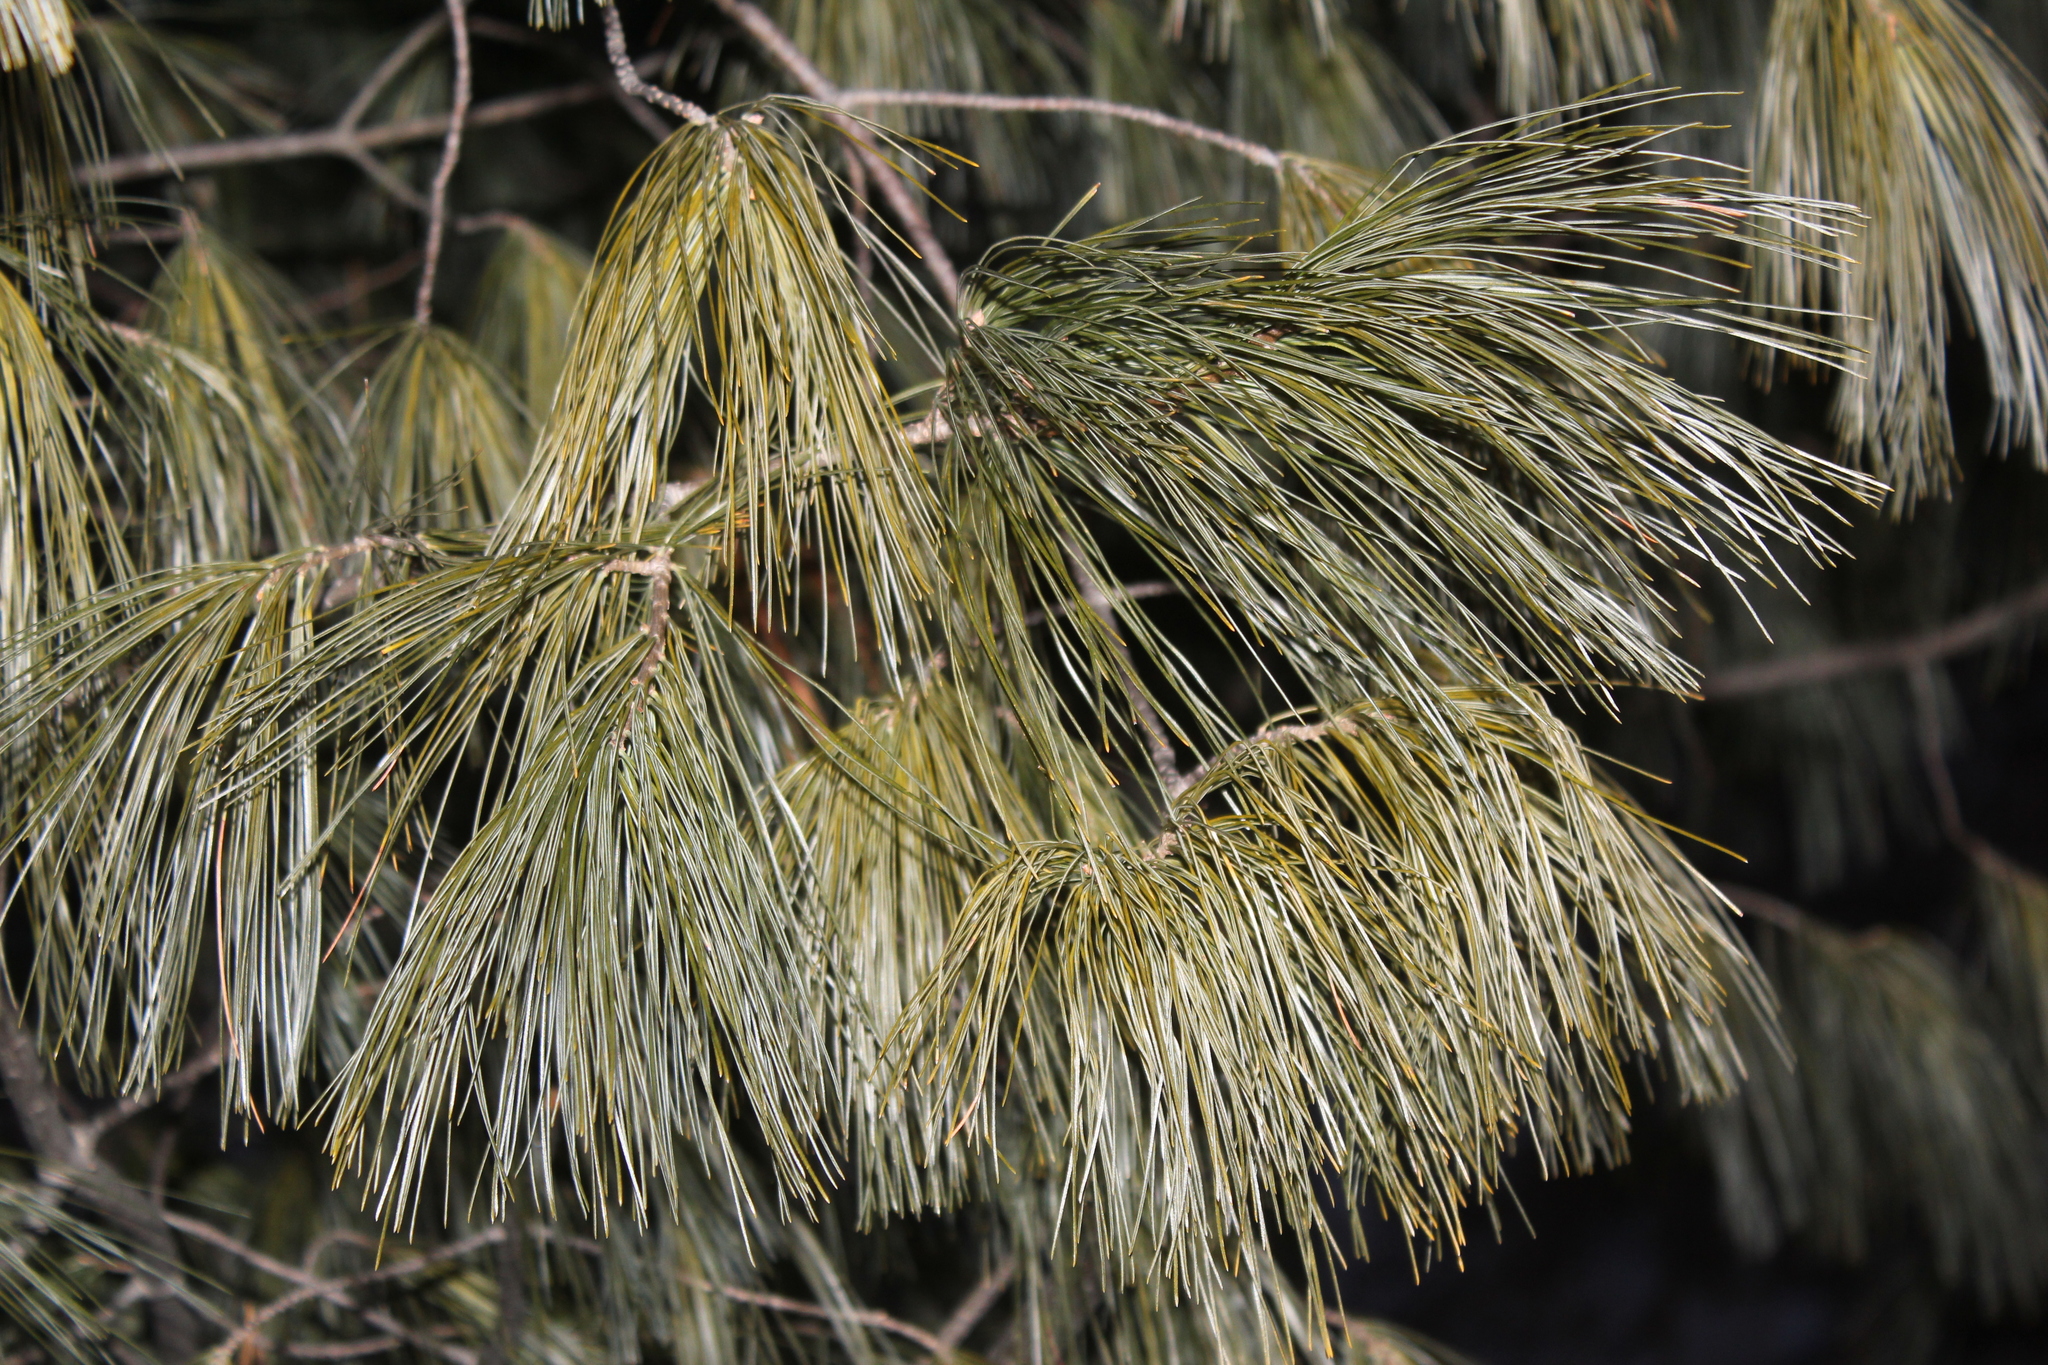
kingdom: Plantae
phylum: Tracheophyta
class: Pinopsida
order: Pinales
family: Pinaceae
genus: Pinus
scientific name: Pinus strobus
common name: Weymouth pine
